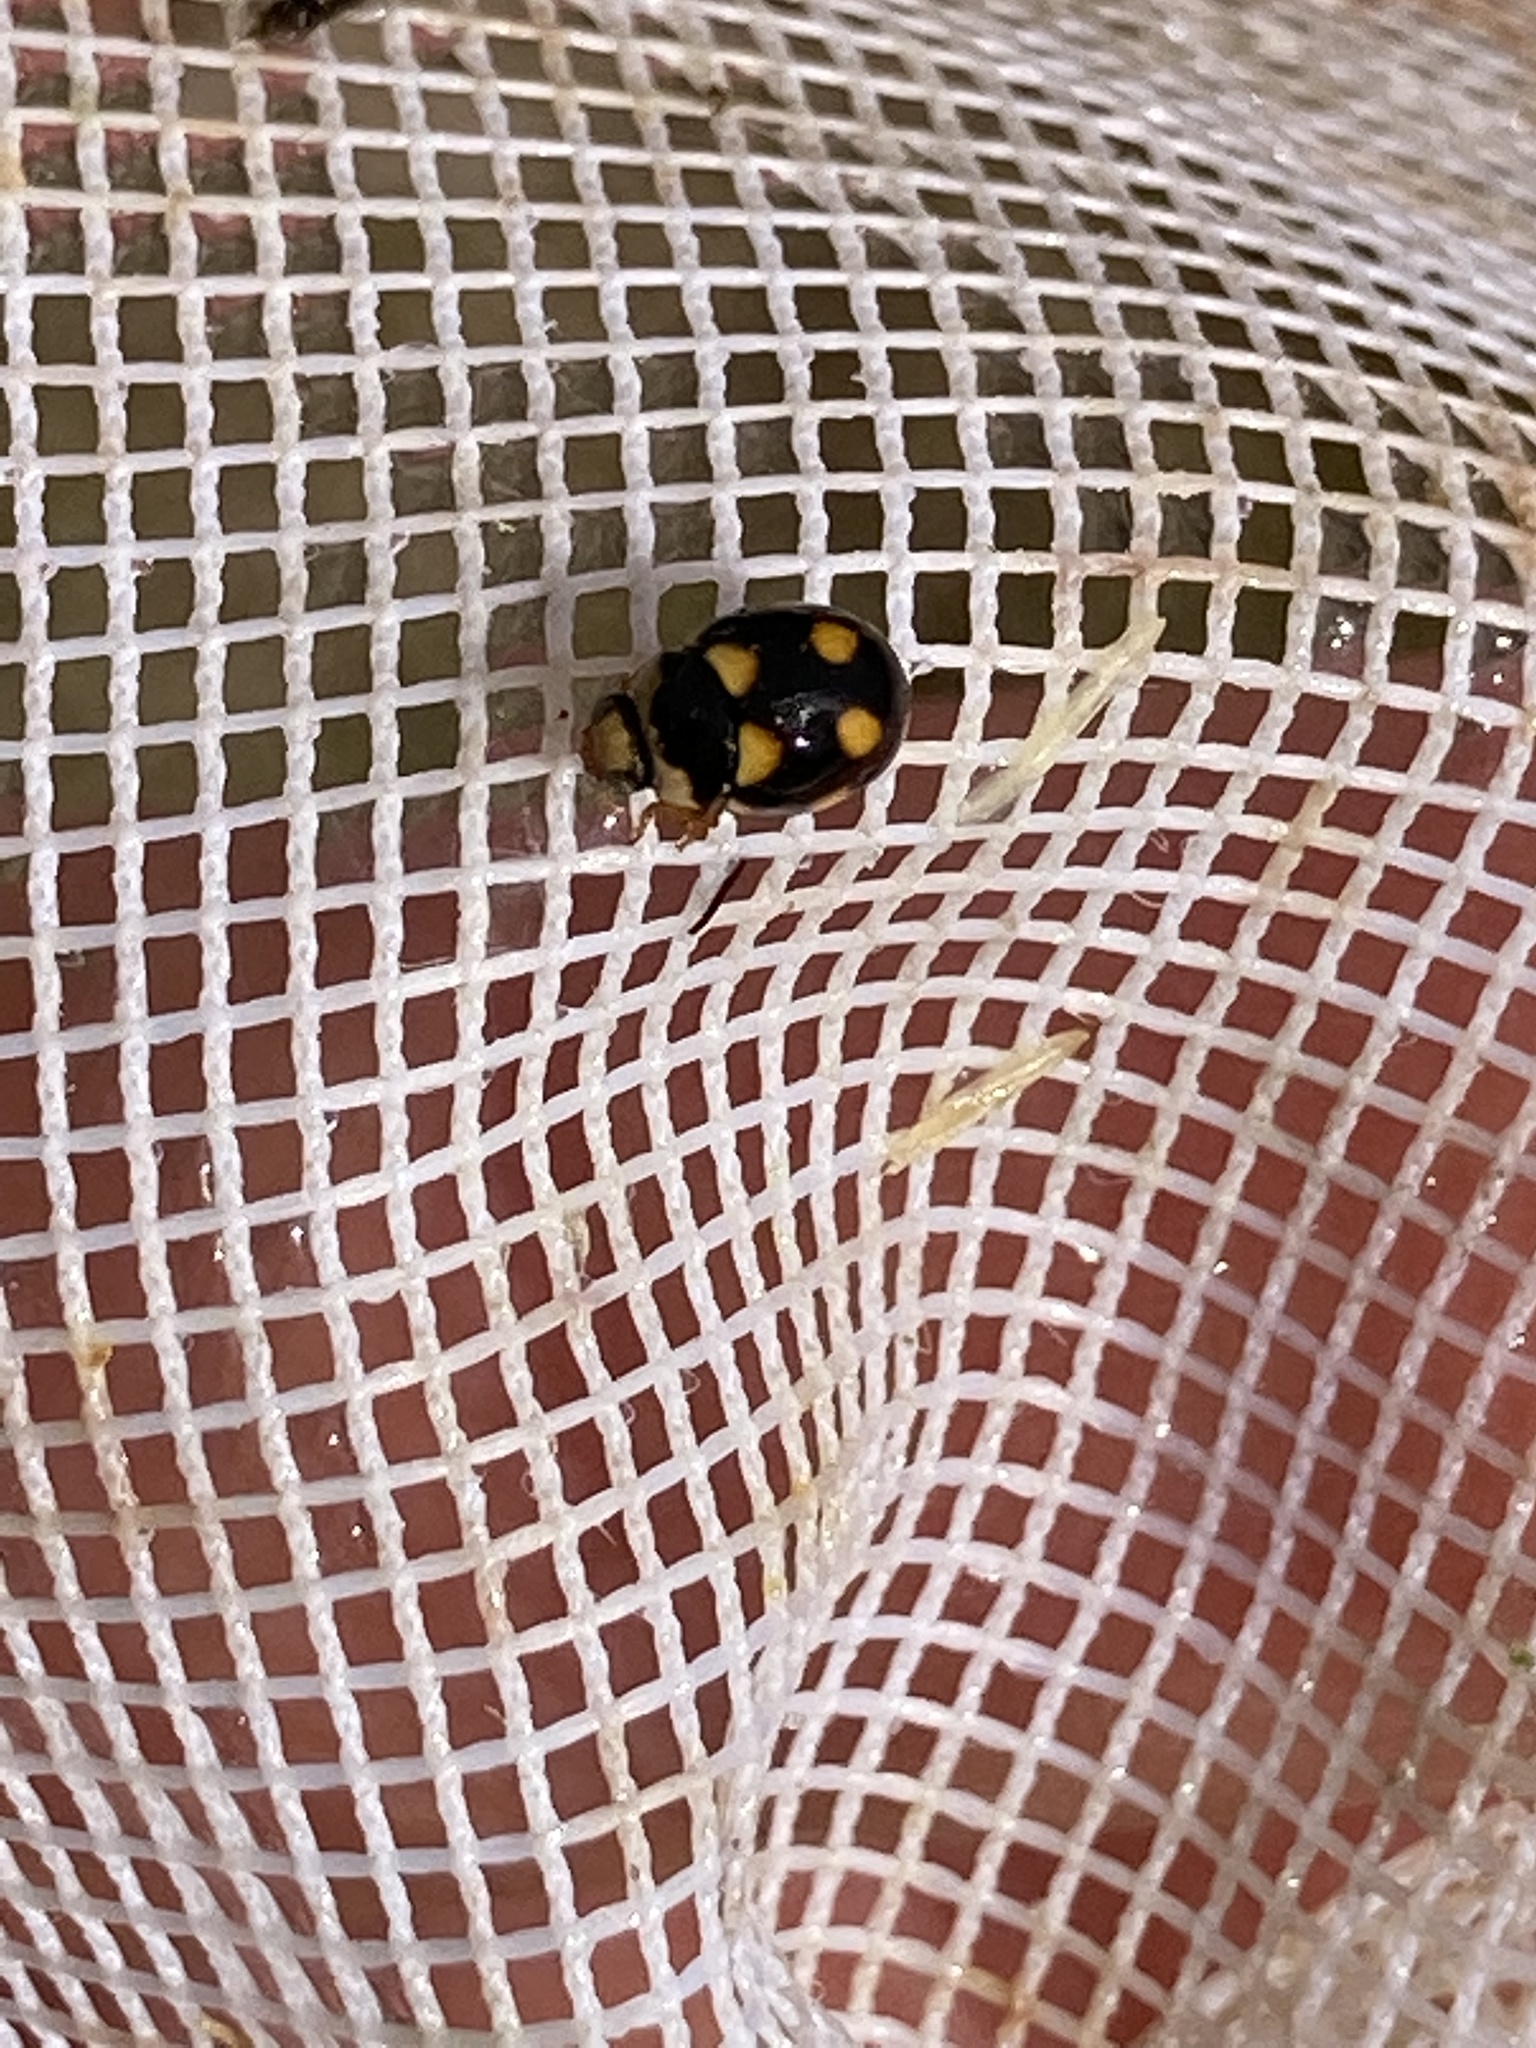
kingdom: Animalia
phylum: Arthropoda
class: Insecta
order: Coleoptera
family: Coccinellidae
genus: Brachiacantha
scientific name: Brachiacantha ursina
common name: Ursine spurleg lady beetle
